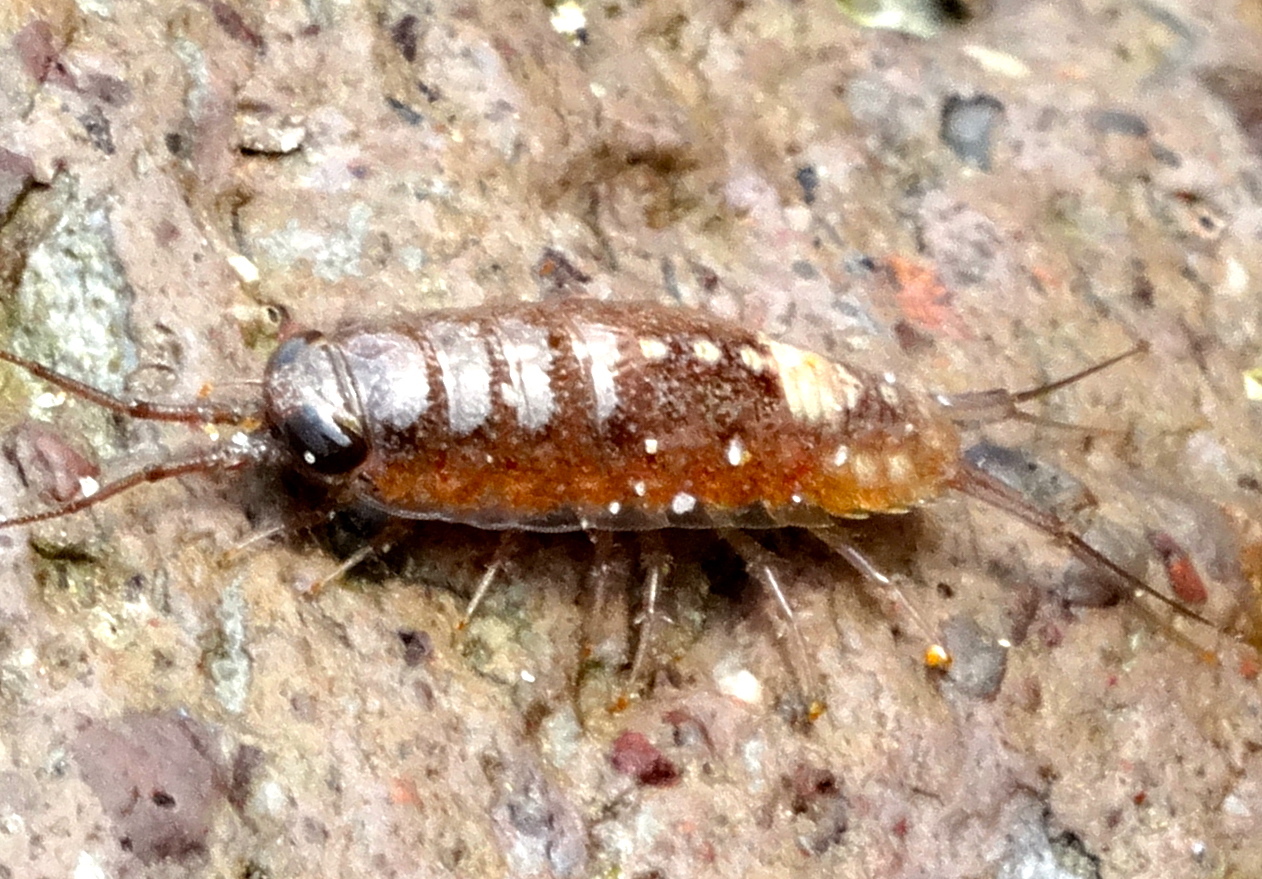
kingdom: Animalia
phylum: Arthropoda
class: Malacostraca
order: Isopoda
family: Ligiidae
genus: Ligia
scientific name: Ligia
